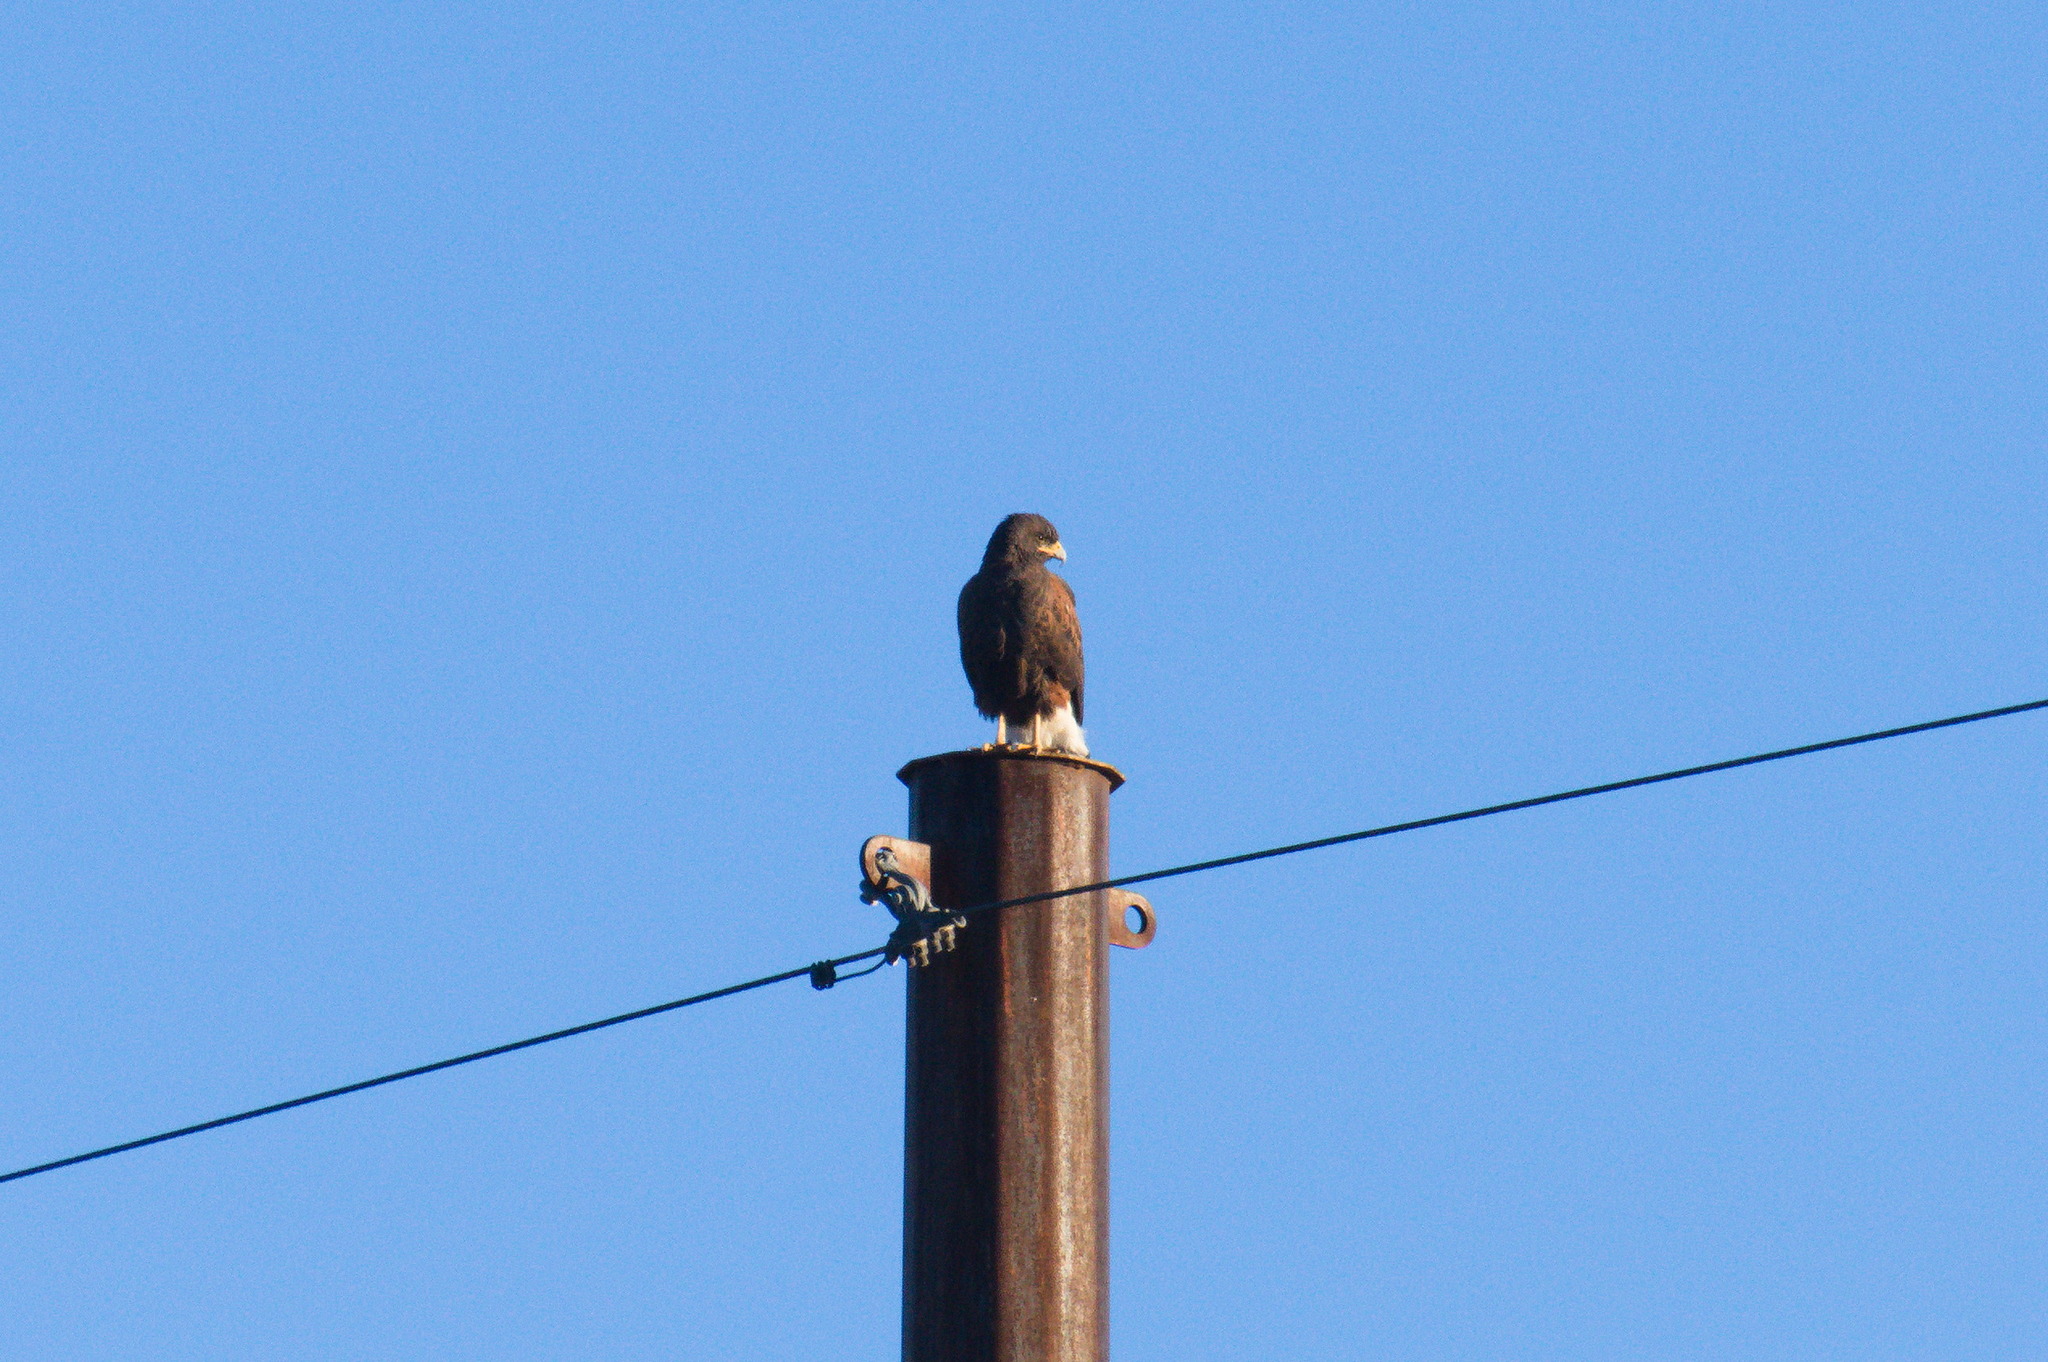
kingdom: Animalia
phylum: Chordata
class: Aves
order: Accipitriformes
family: Accipitridae
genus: Parabuteo
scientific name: Parabuteo unicinctus
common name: Harris's hawk
